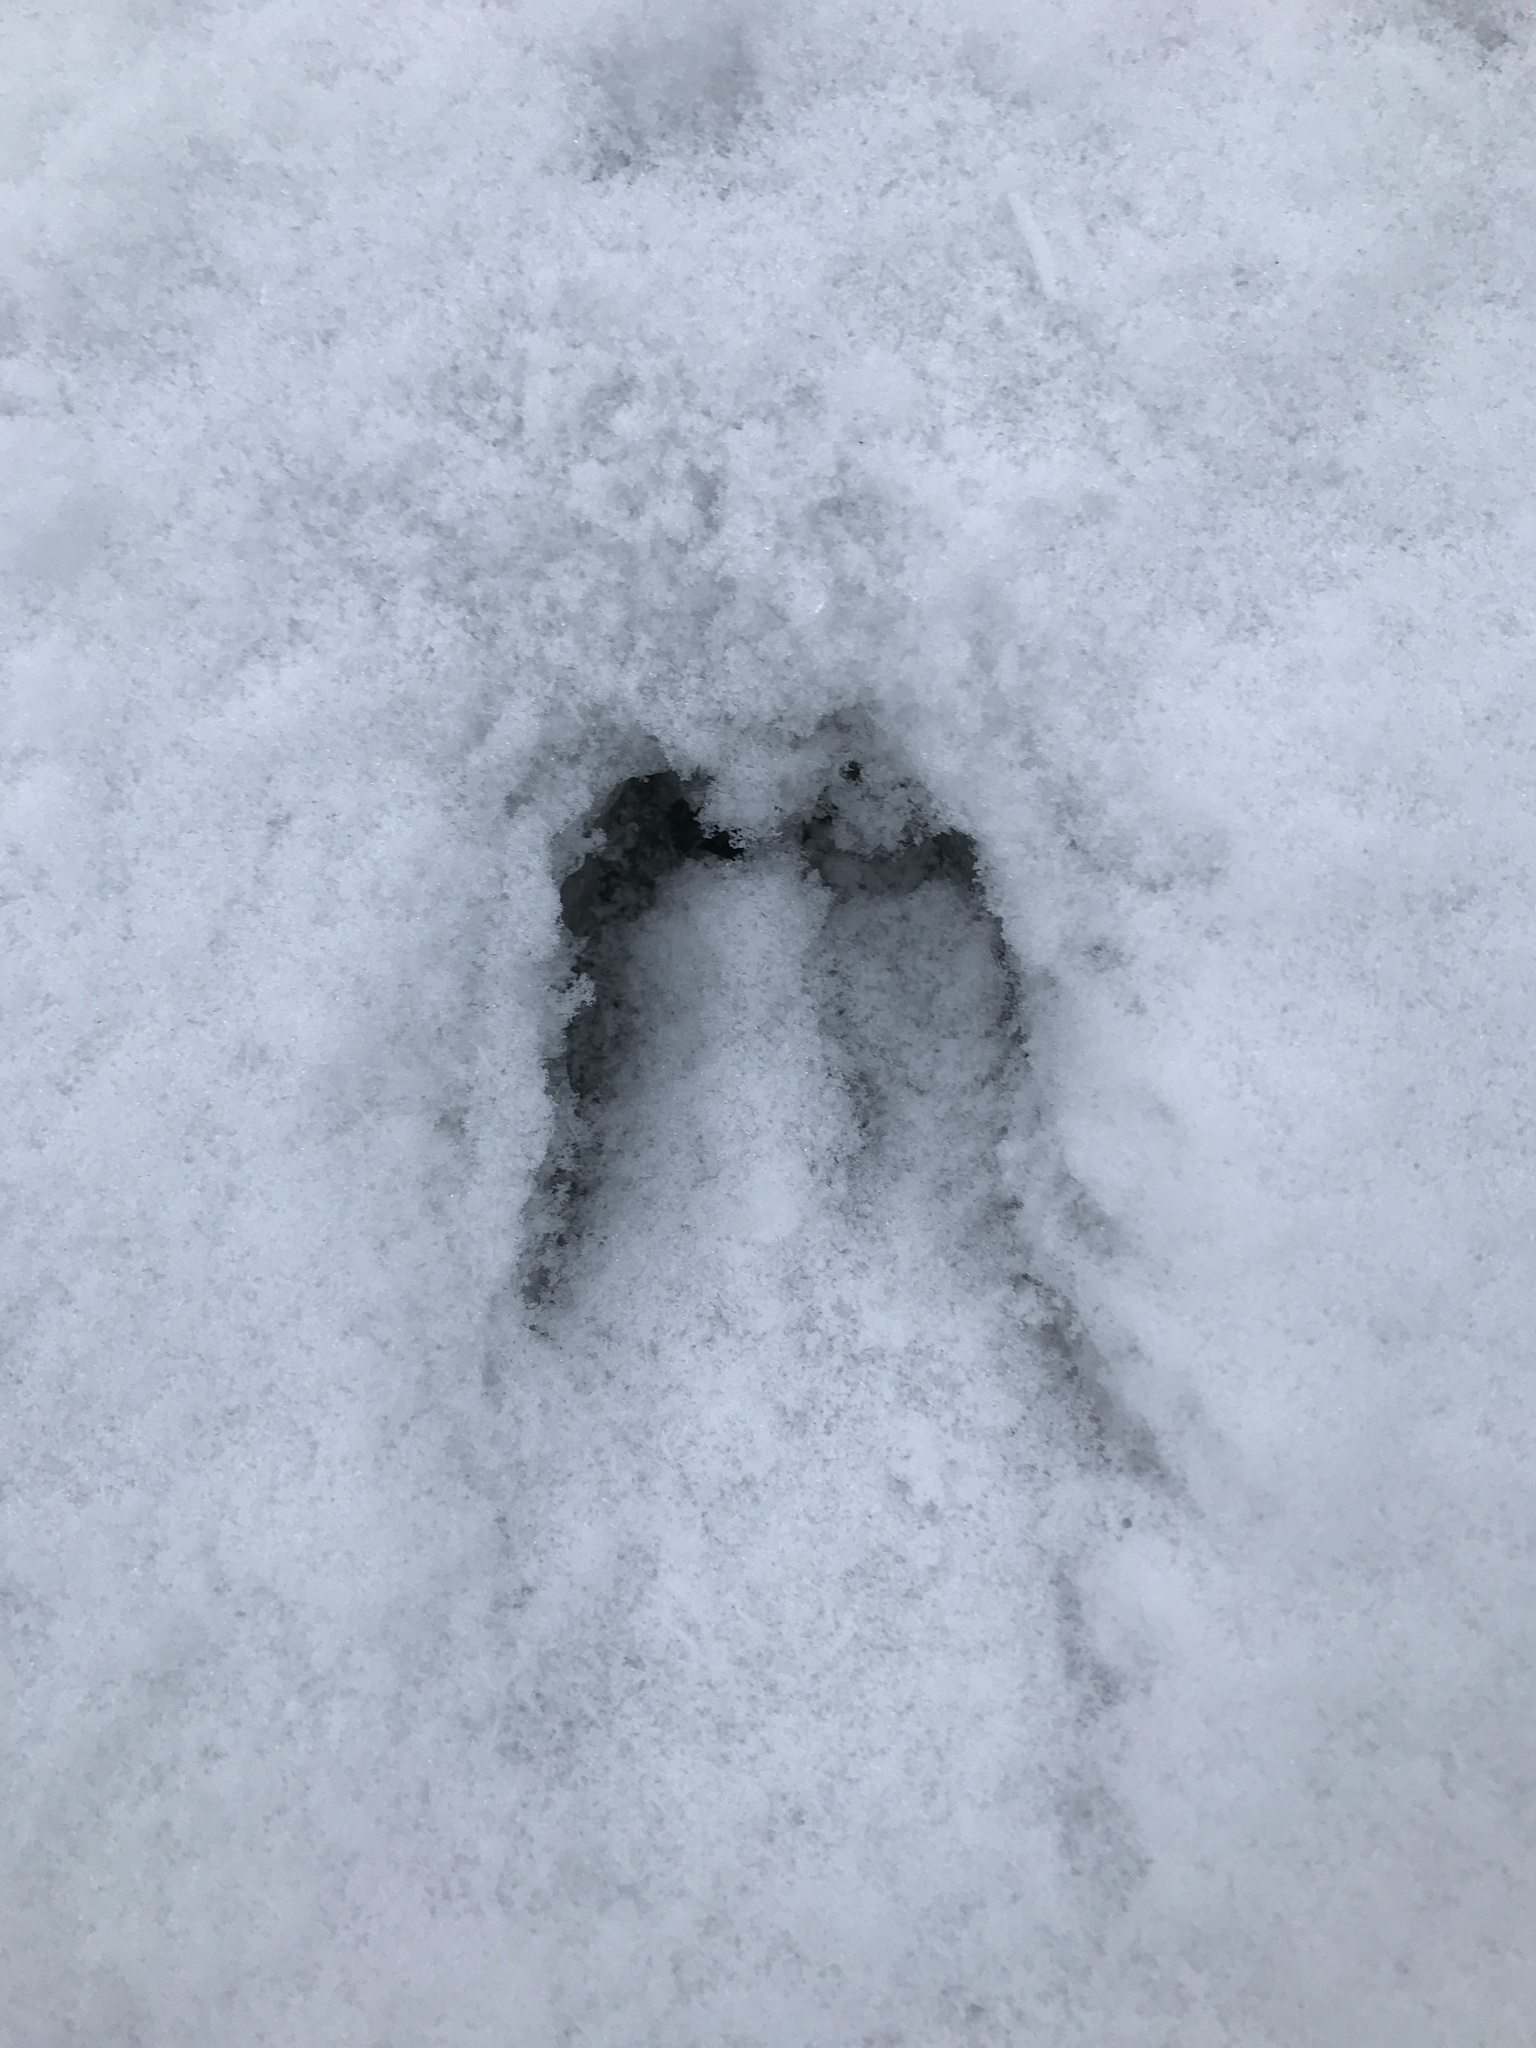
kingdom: Animalia
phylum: Chordata
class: Mammalia
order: Artiodactyla
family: Cervidae
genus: Odocoileus
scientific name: Odocoileus virginianus
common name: White-tailed deer
